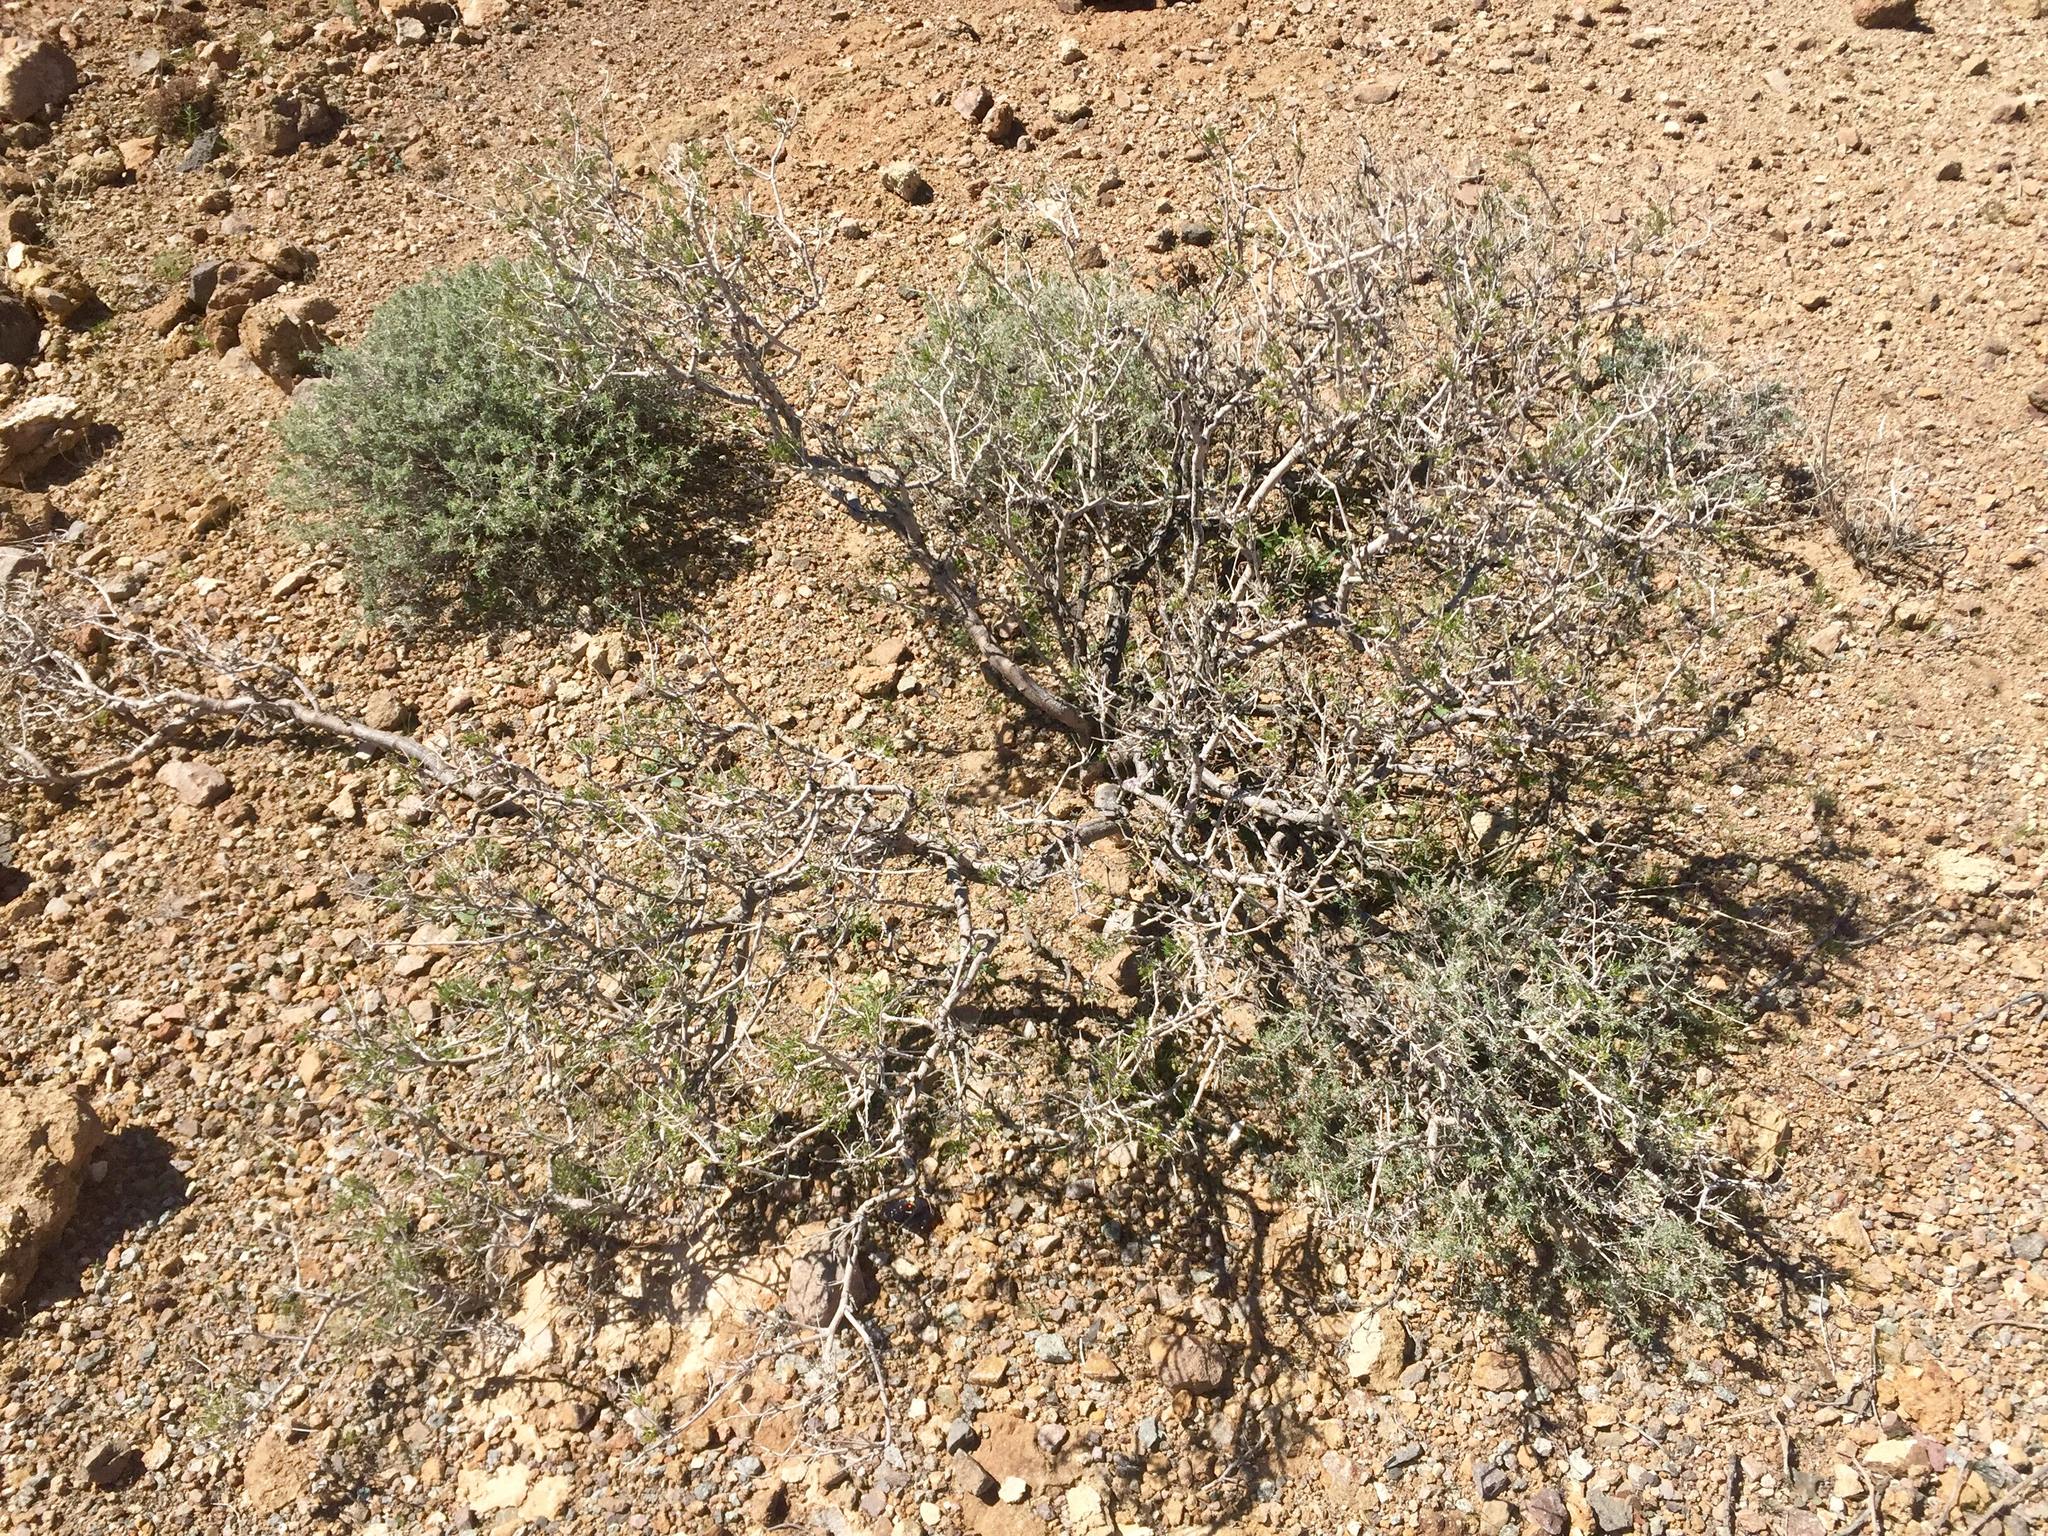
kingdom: Plantae
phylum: Tracheophyta
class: Magnoliopsida
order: Fabales
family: Fabaceae
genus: Senegalia
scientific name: Senegalia greggii
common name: Texas-mimosa
